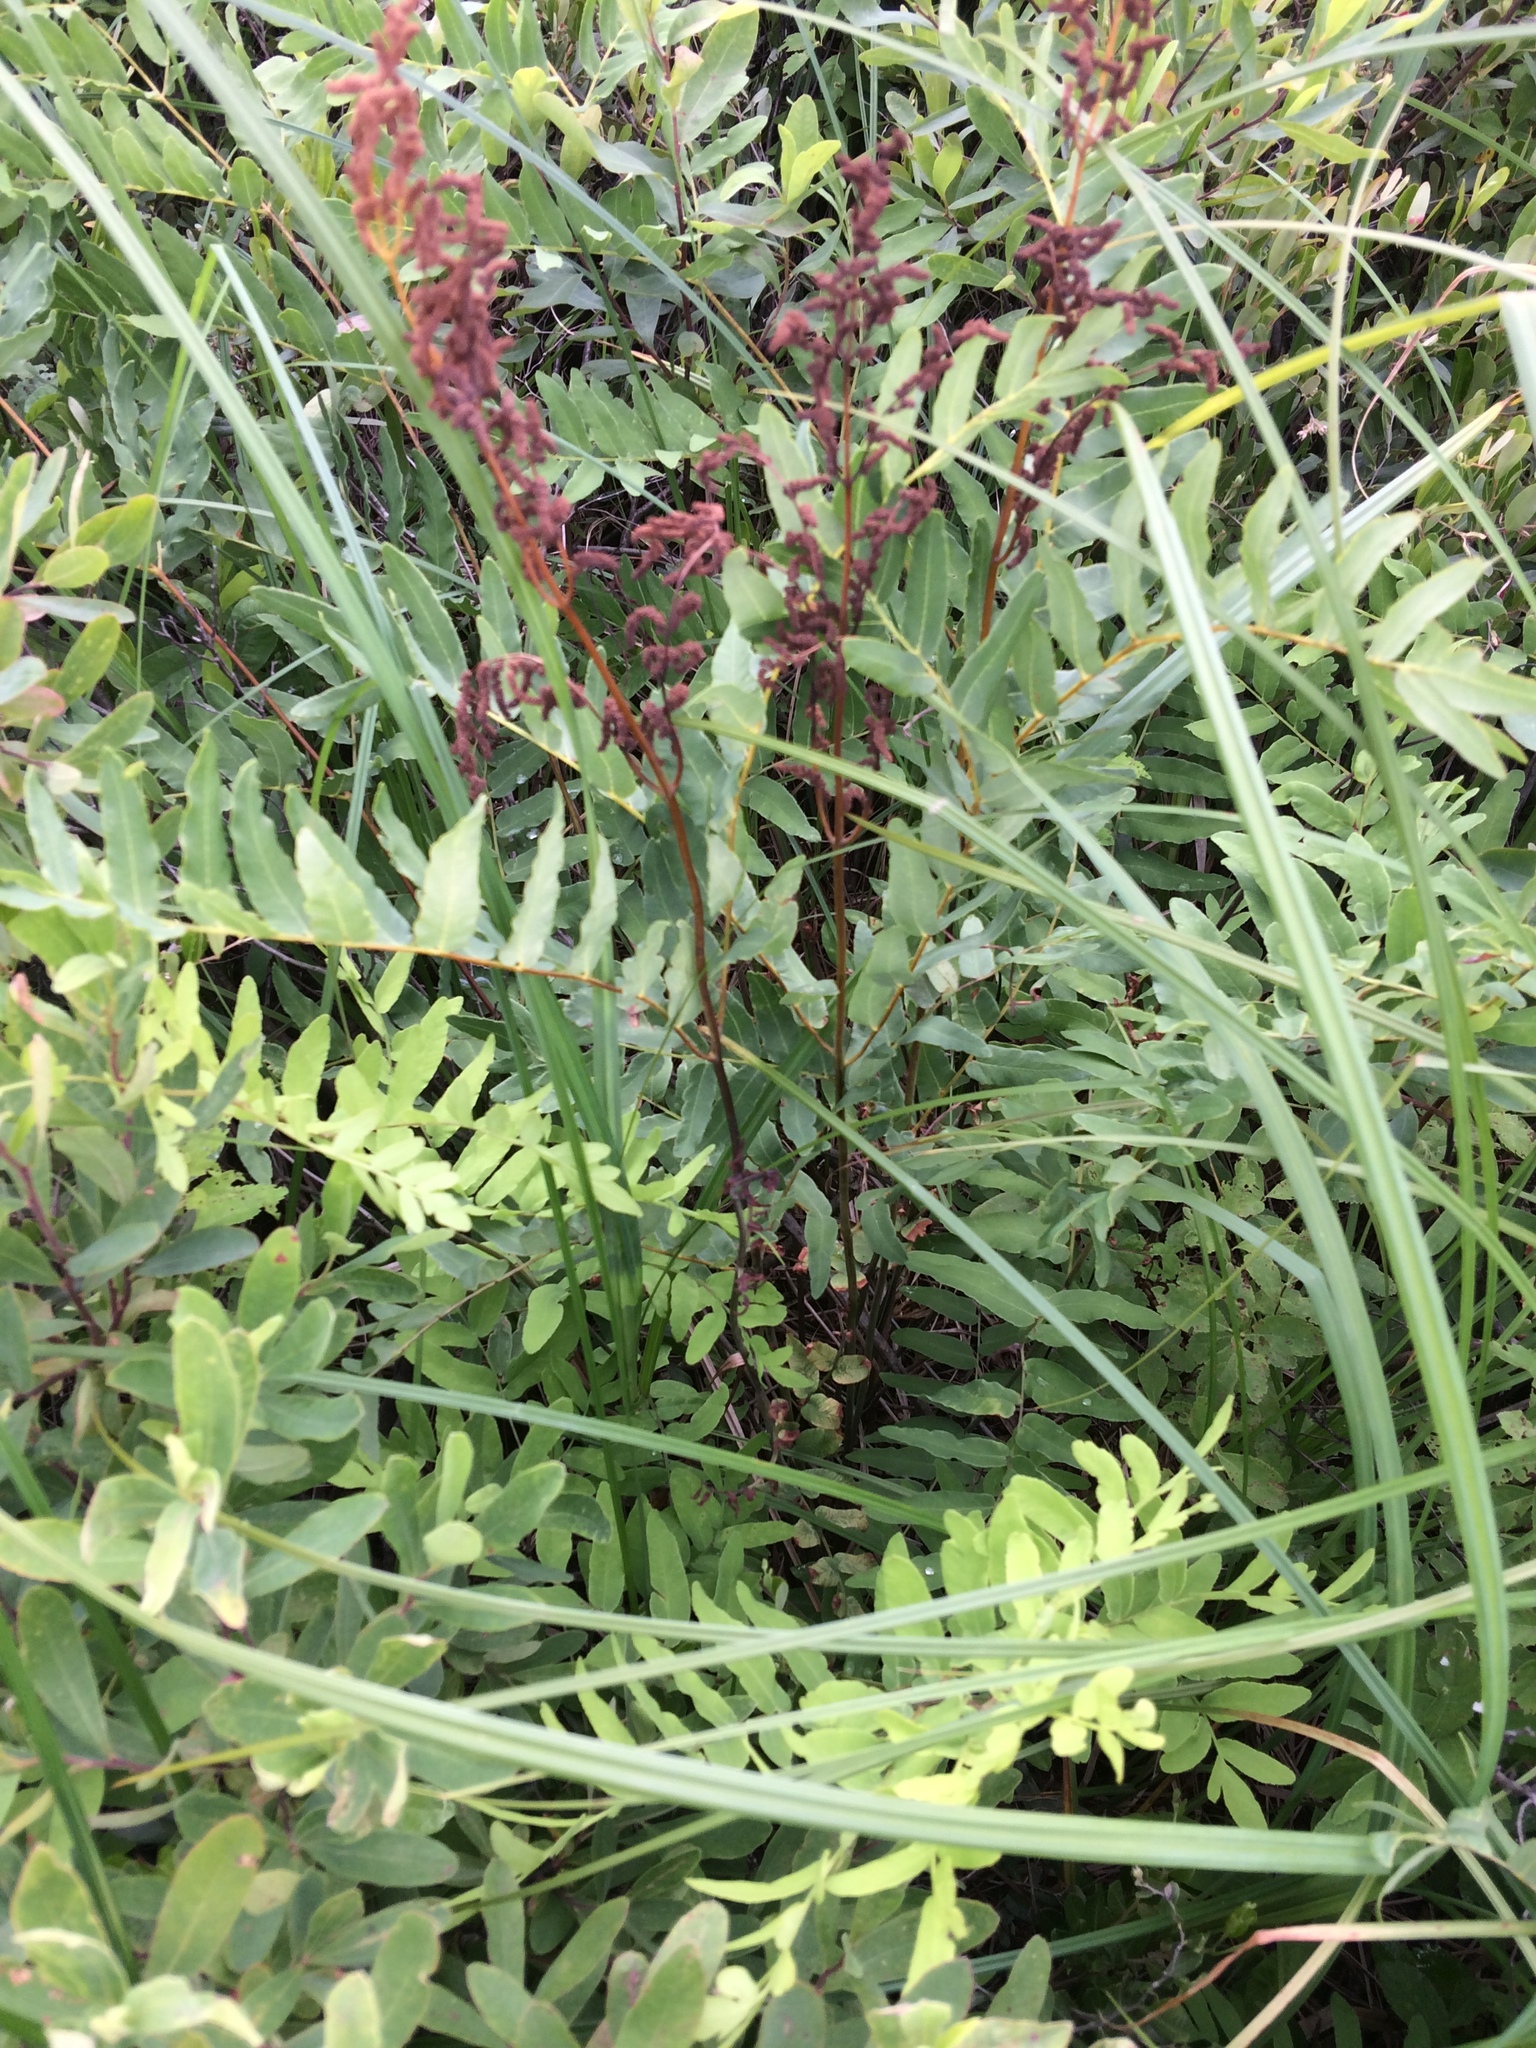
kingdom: Plantae
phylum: Tracheophyta
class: Polypodiopsida
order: Osmundales
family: Osmundaceae
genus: Osmunda
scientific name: Osmunda spectabilis
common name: American royal fern
